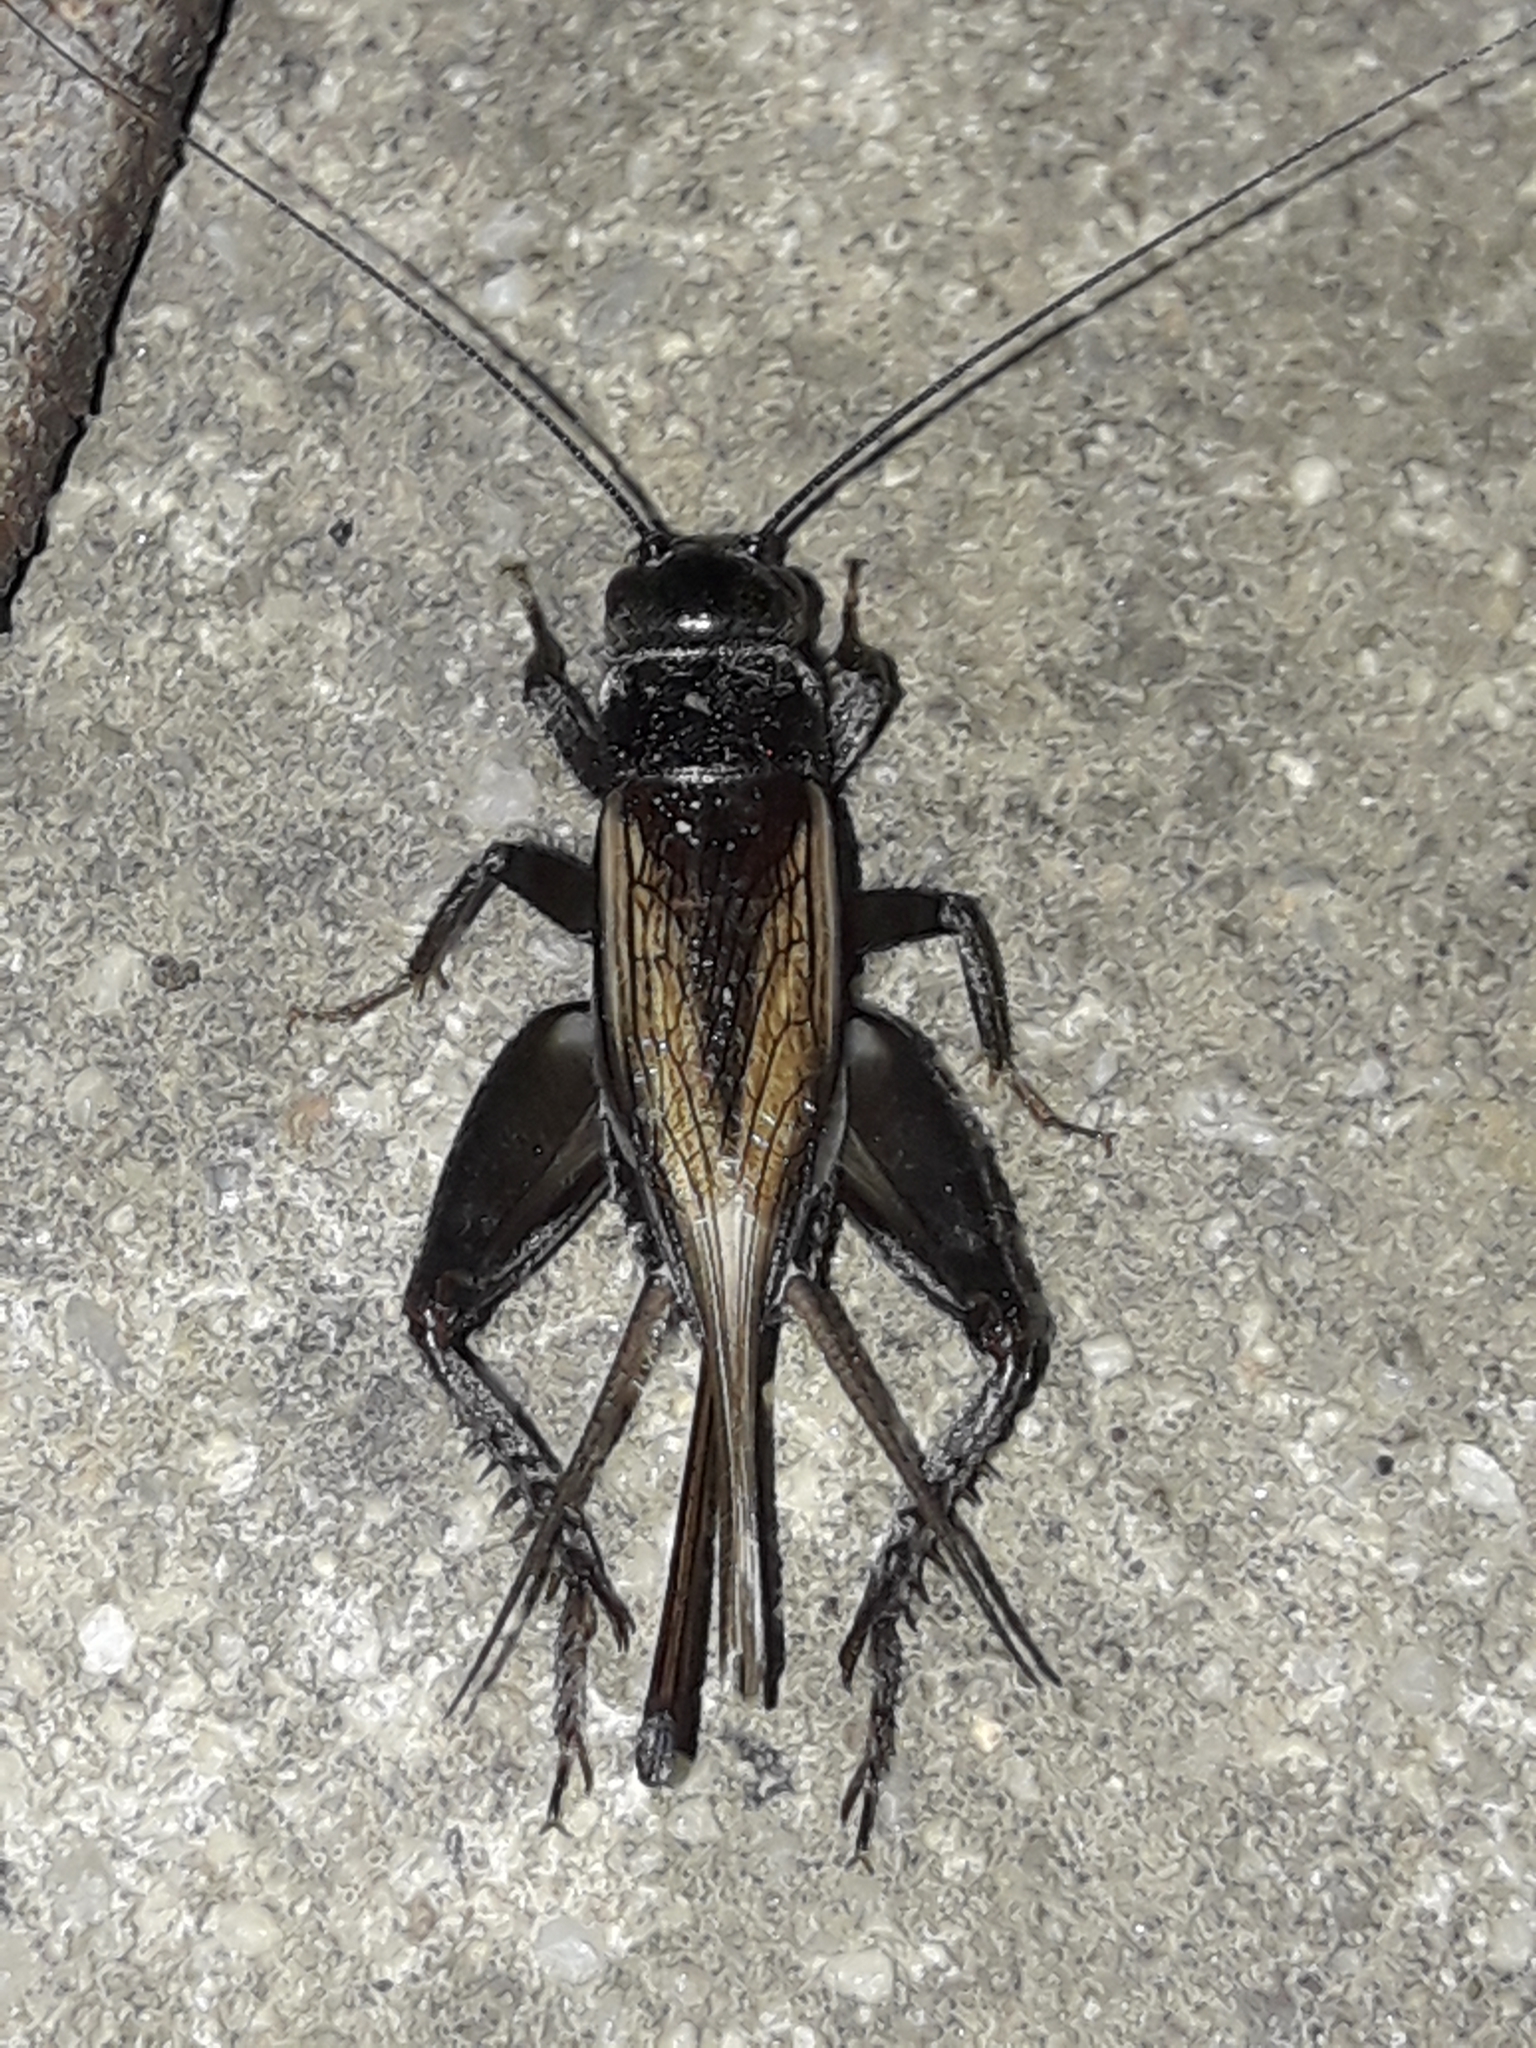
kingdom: Animalia
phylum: Arthropoda
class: Insecta
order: Orthoptera
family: Gryllidae
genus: Teleogryllus
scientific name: Teleogryllus commodus
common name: Black field cricket
